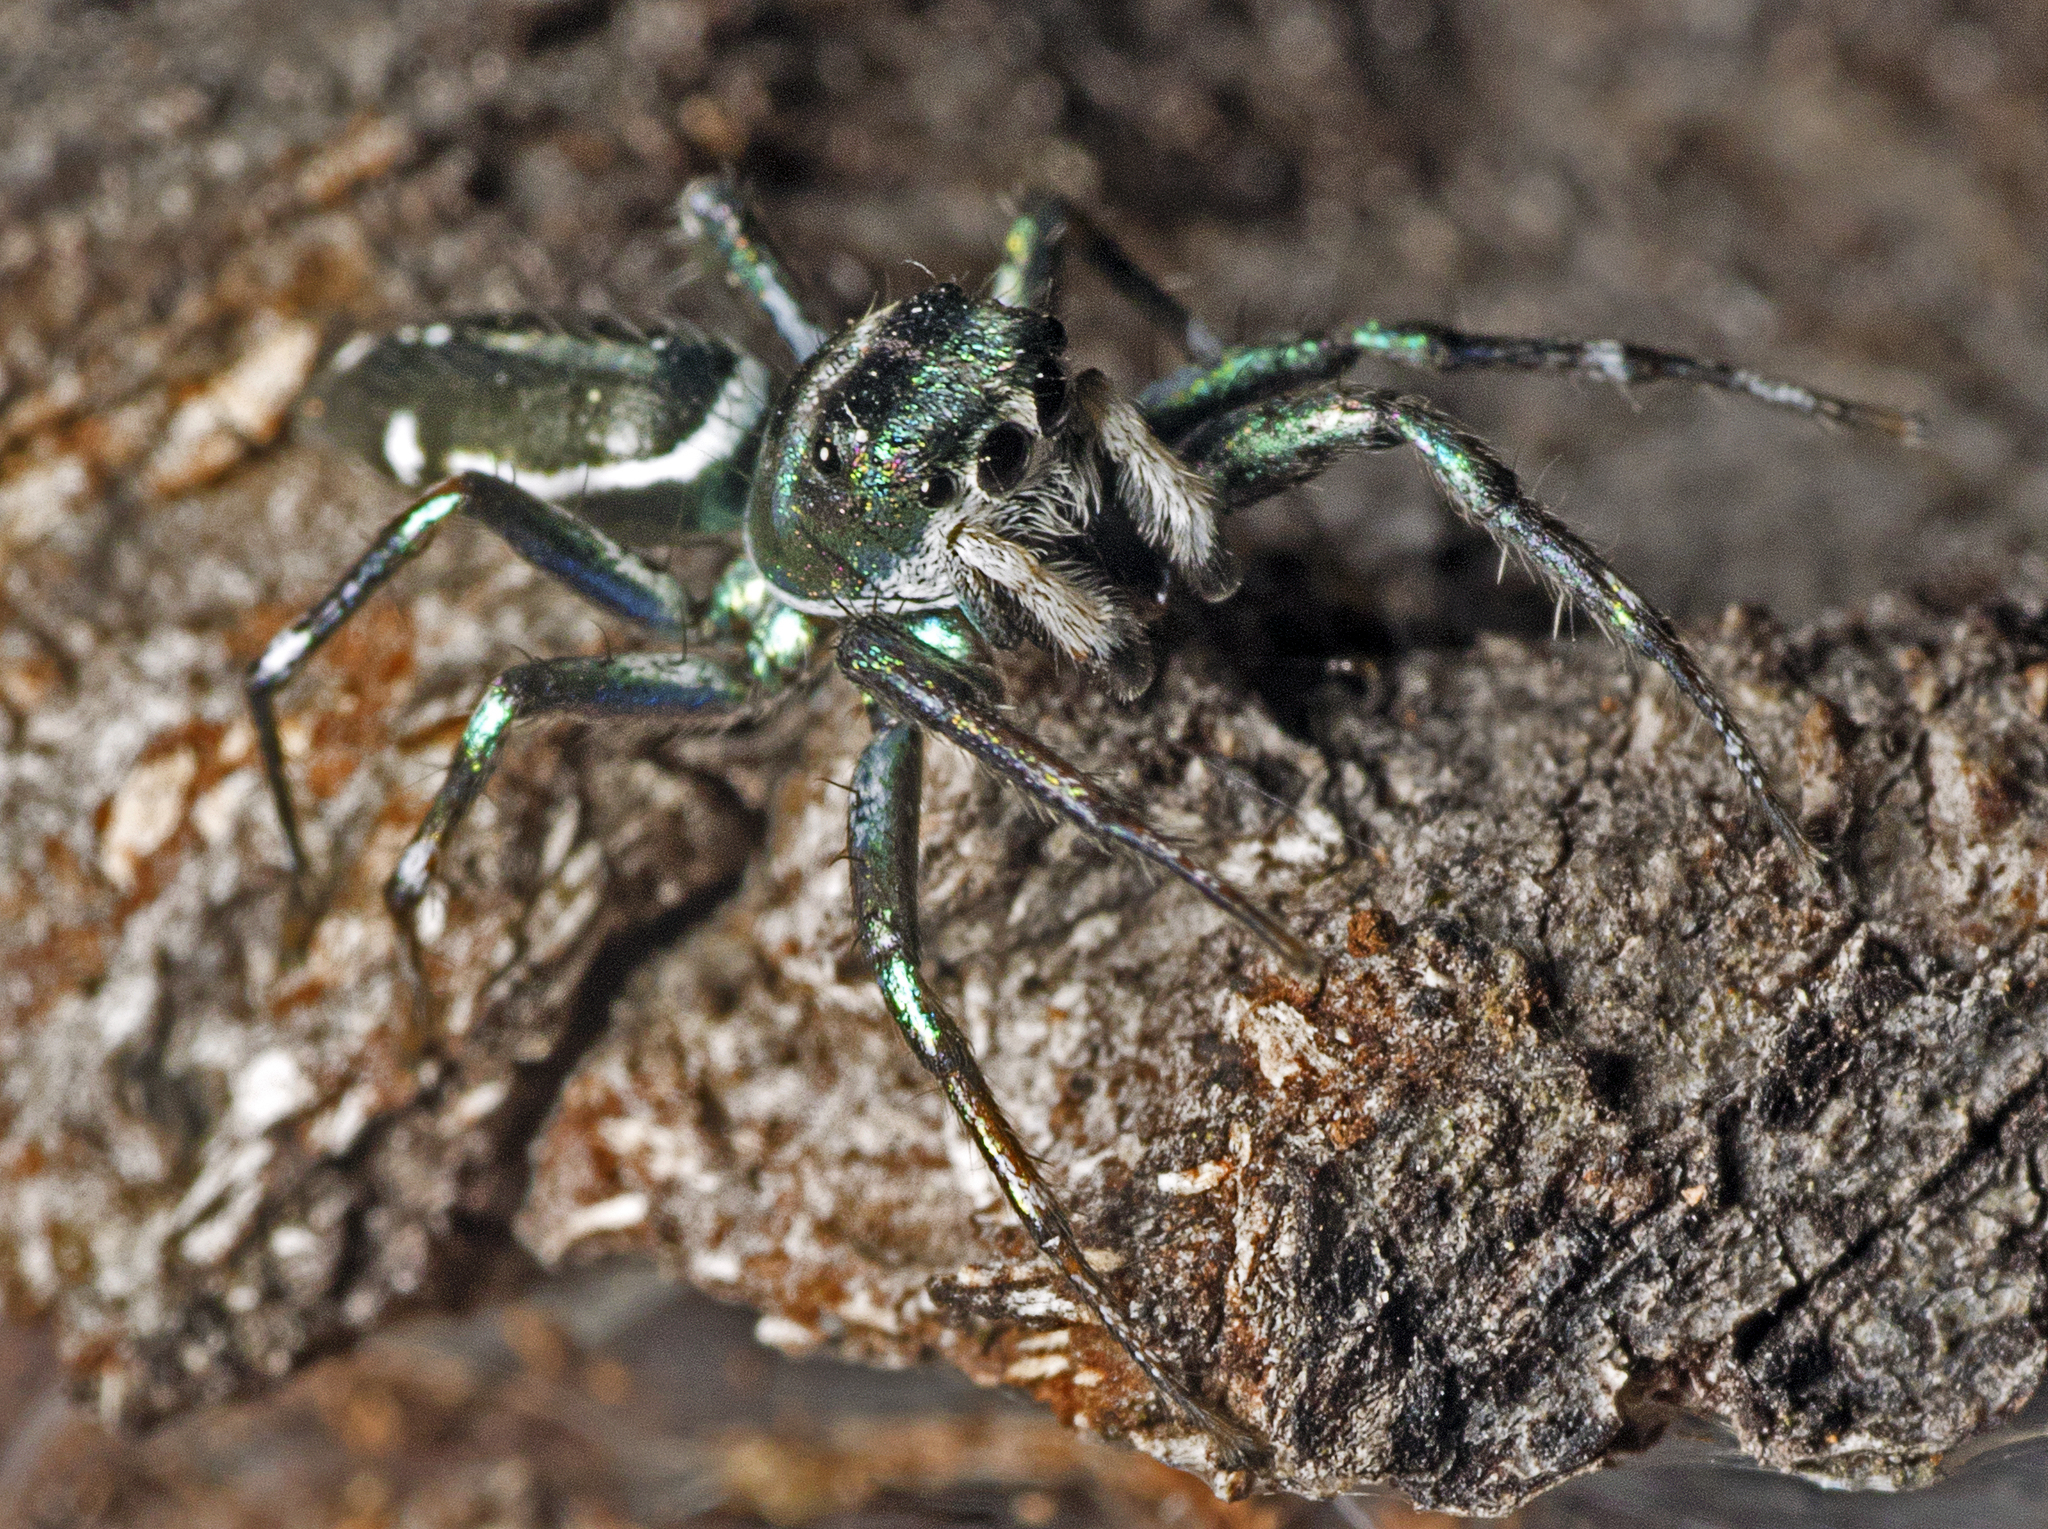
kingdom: Animalia
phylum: Arthropoda
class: Arachnida
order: Araneae
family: Salticidae
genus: Cosmophasis
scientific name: Cosmophasis thalassina
